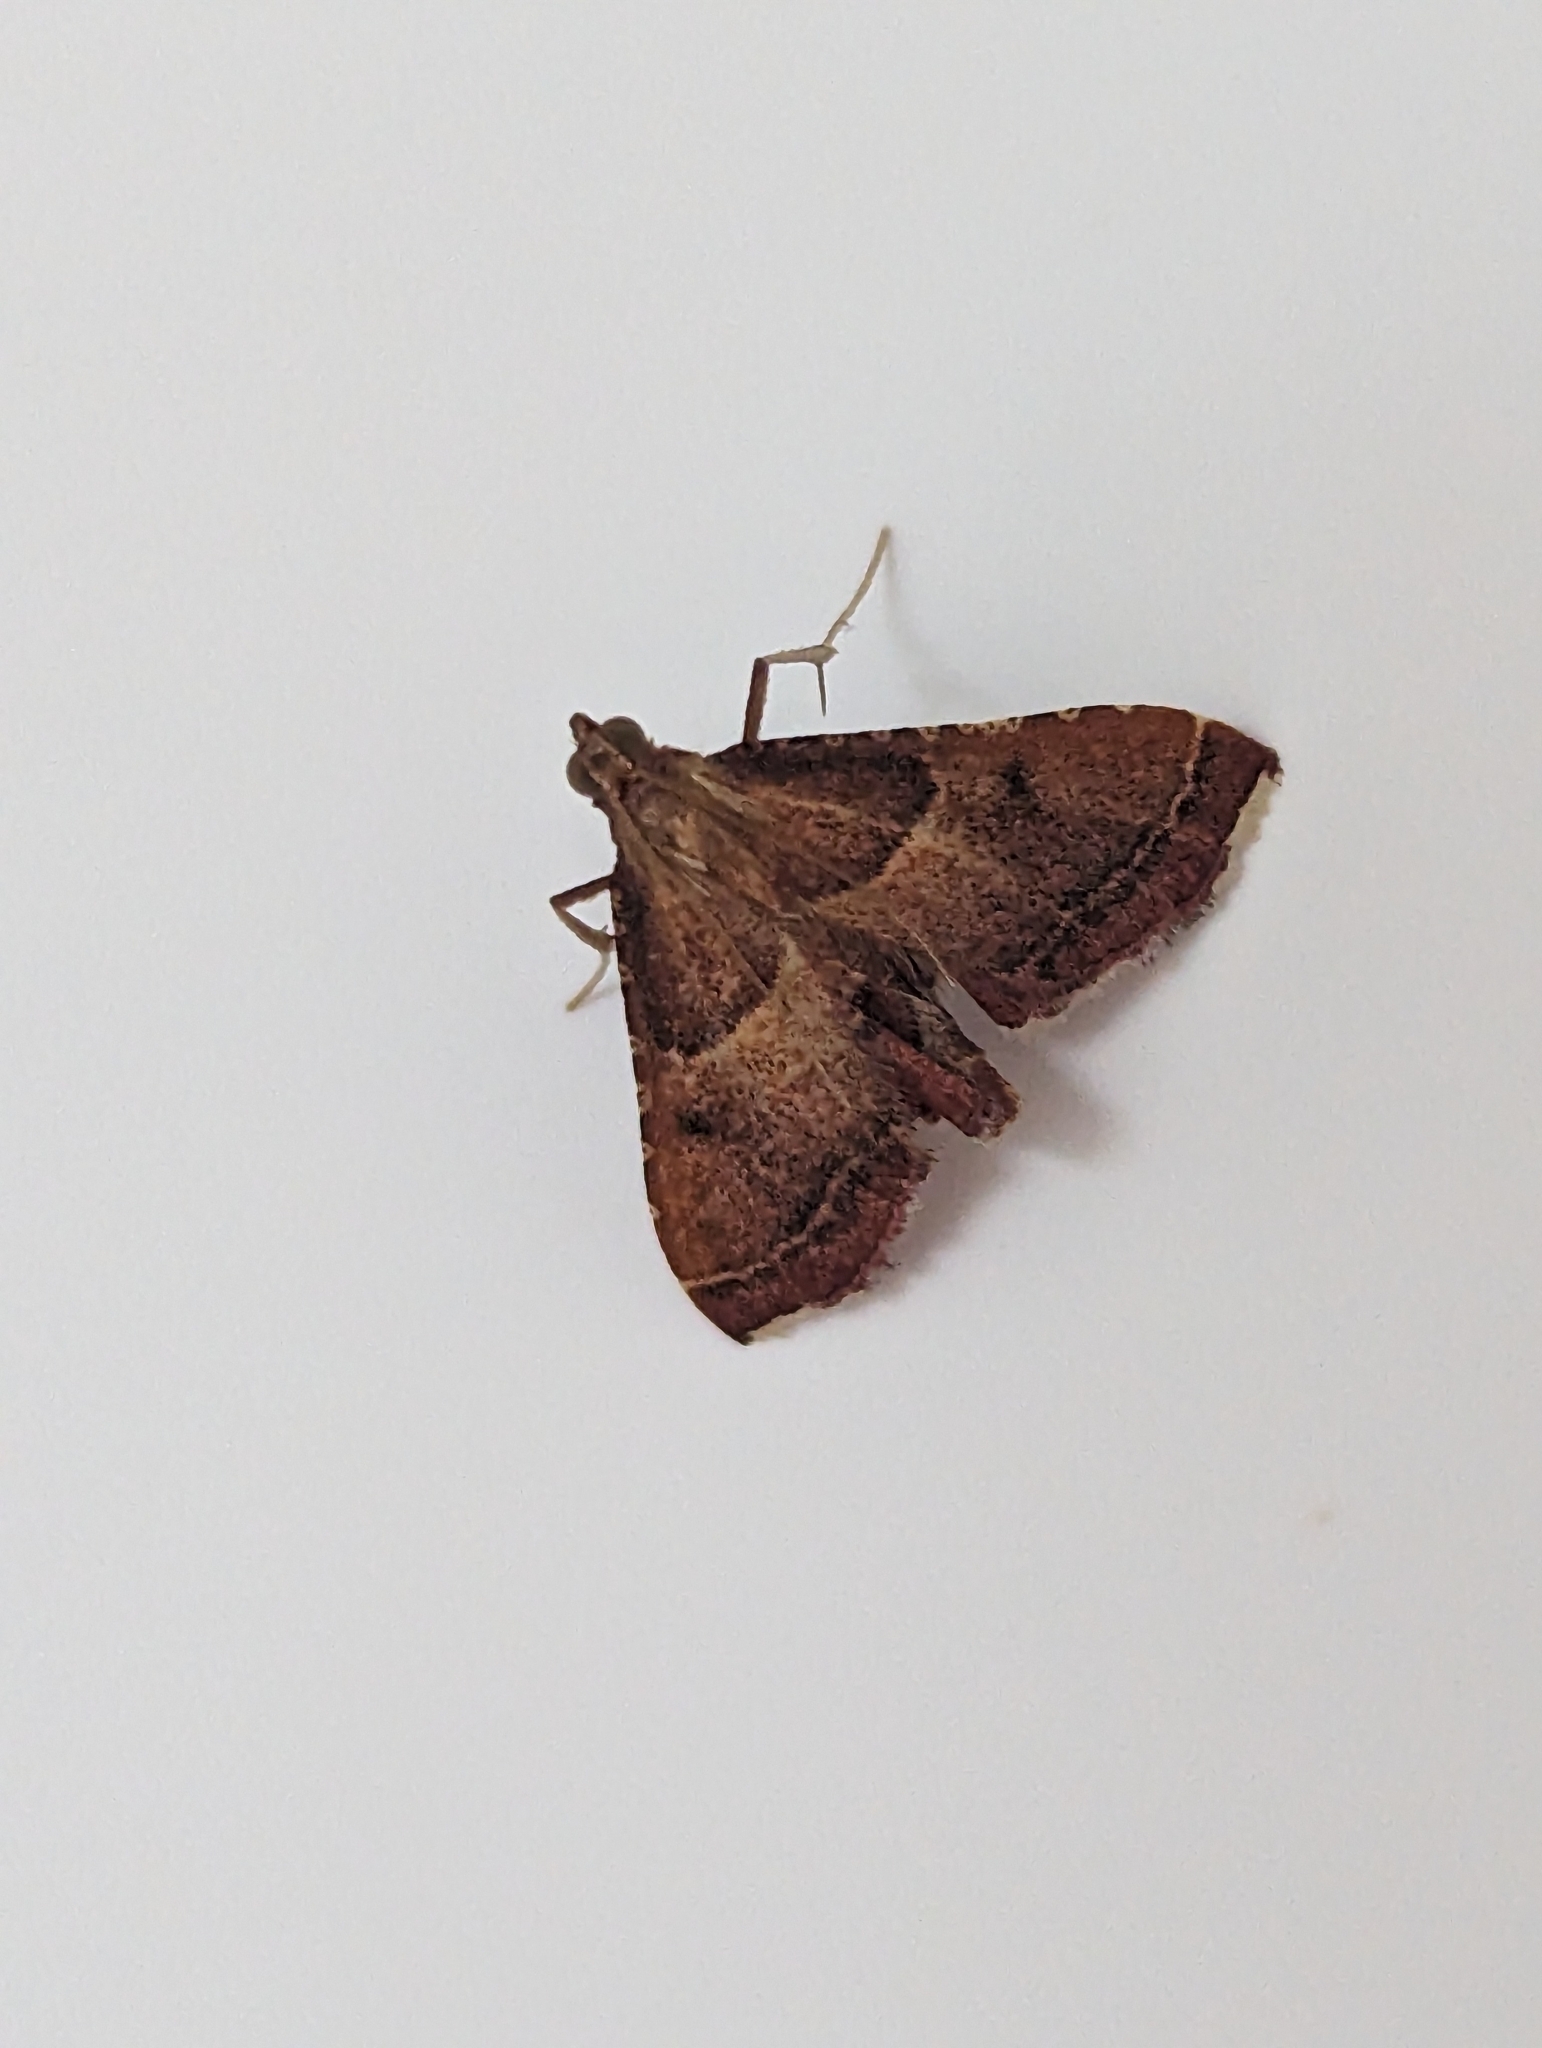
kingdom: Animalia
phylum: Arthropoda
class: Insecta
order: Lepidoptera
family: Pyralidae
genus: Endotricha
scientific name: Endotricha flammealis
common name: Rosy tabby
